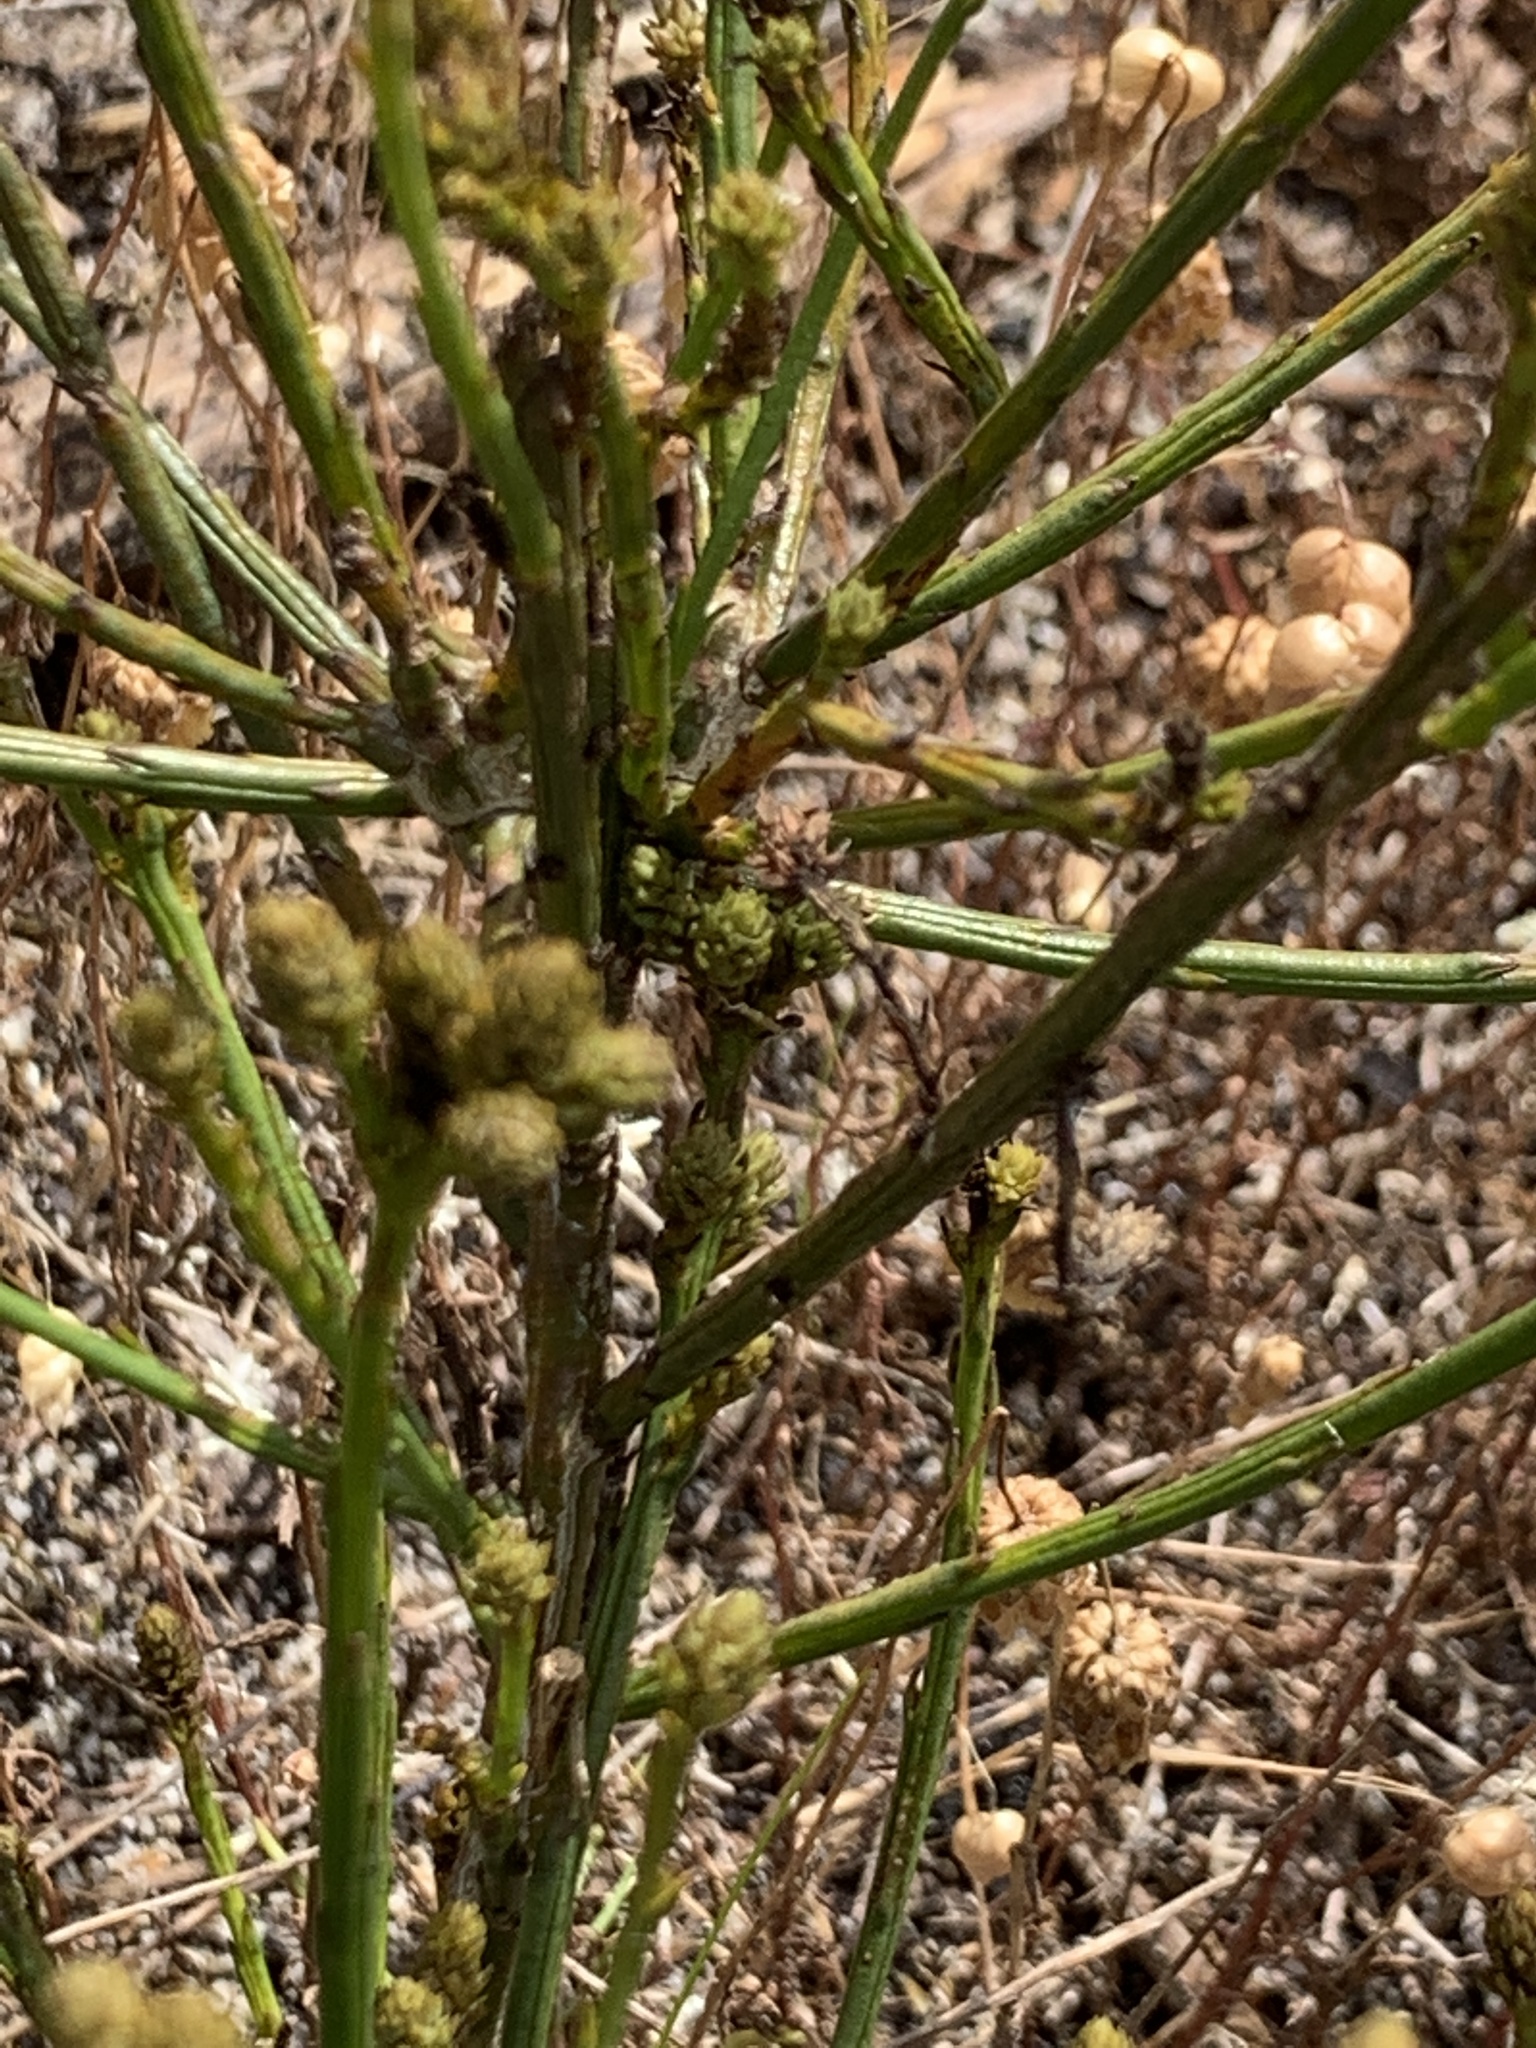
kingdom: Plantae
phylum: Tracheophyta
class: Magnoliopsida
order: Santalales
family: Thesiaceae
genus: Thesium
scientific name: Thesium aggregatum
